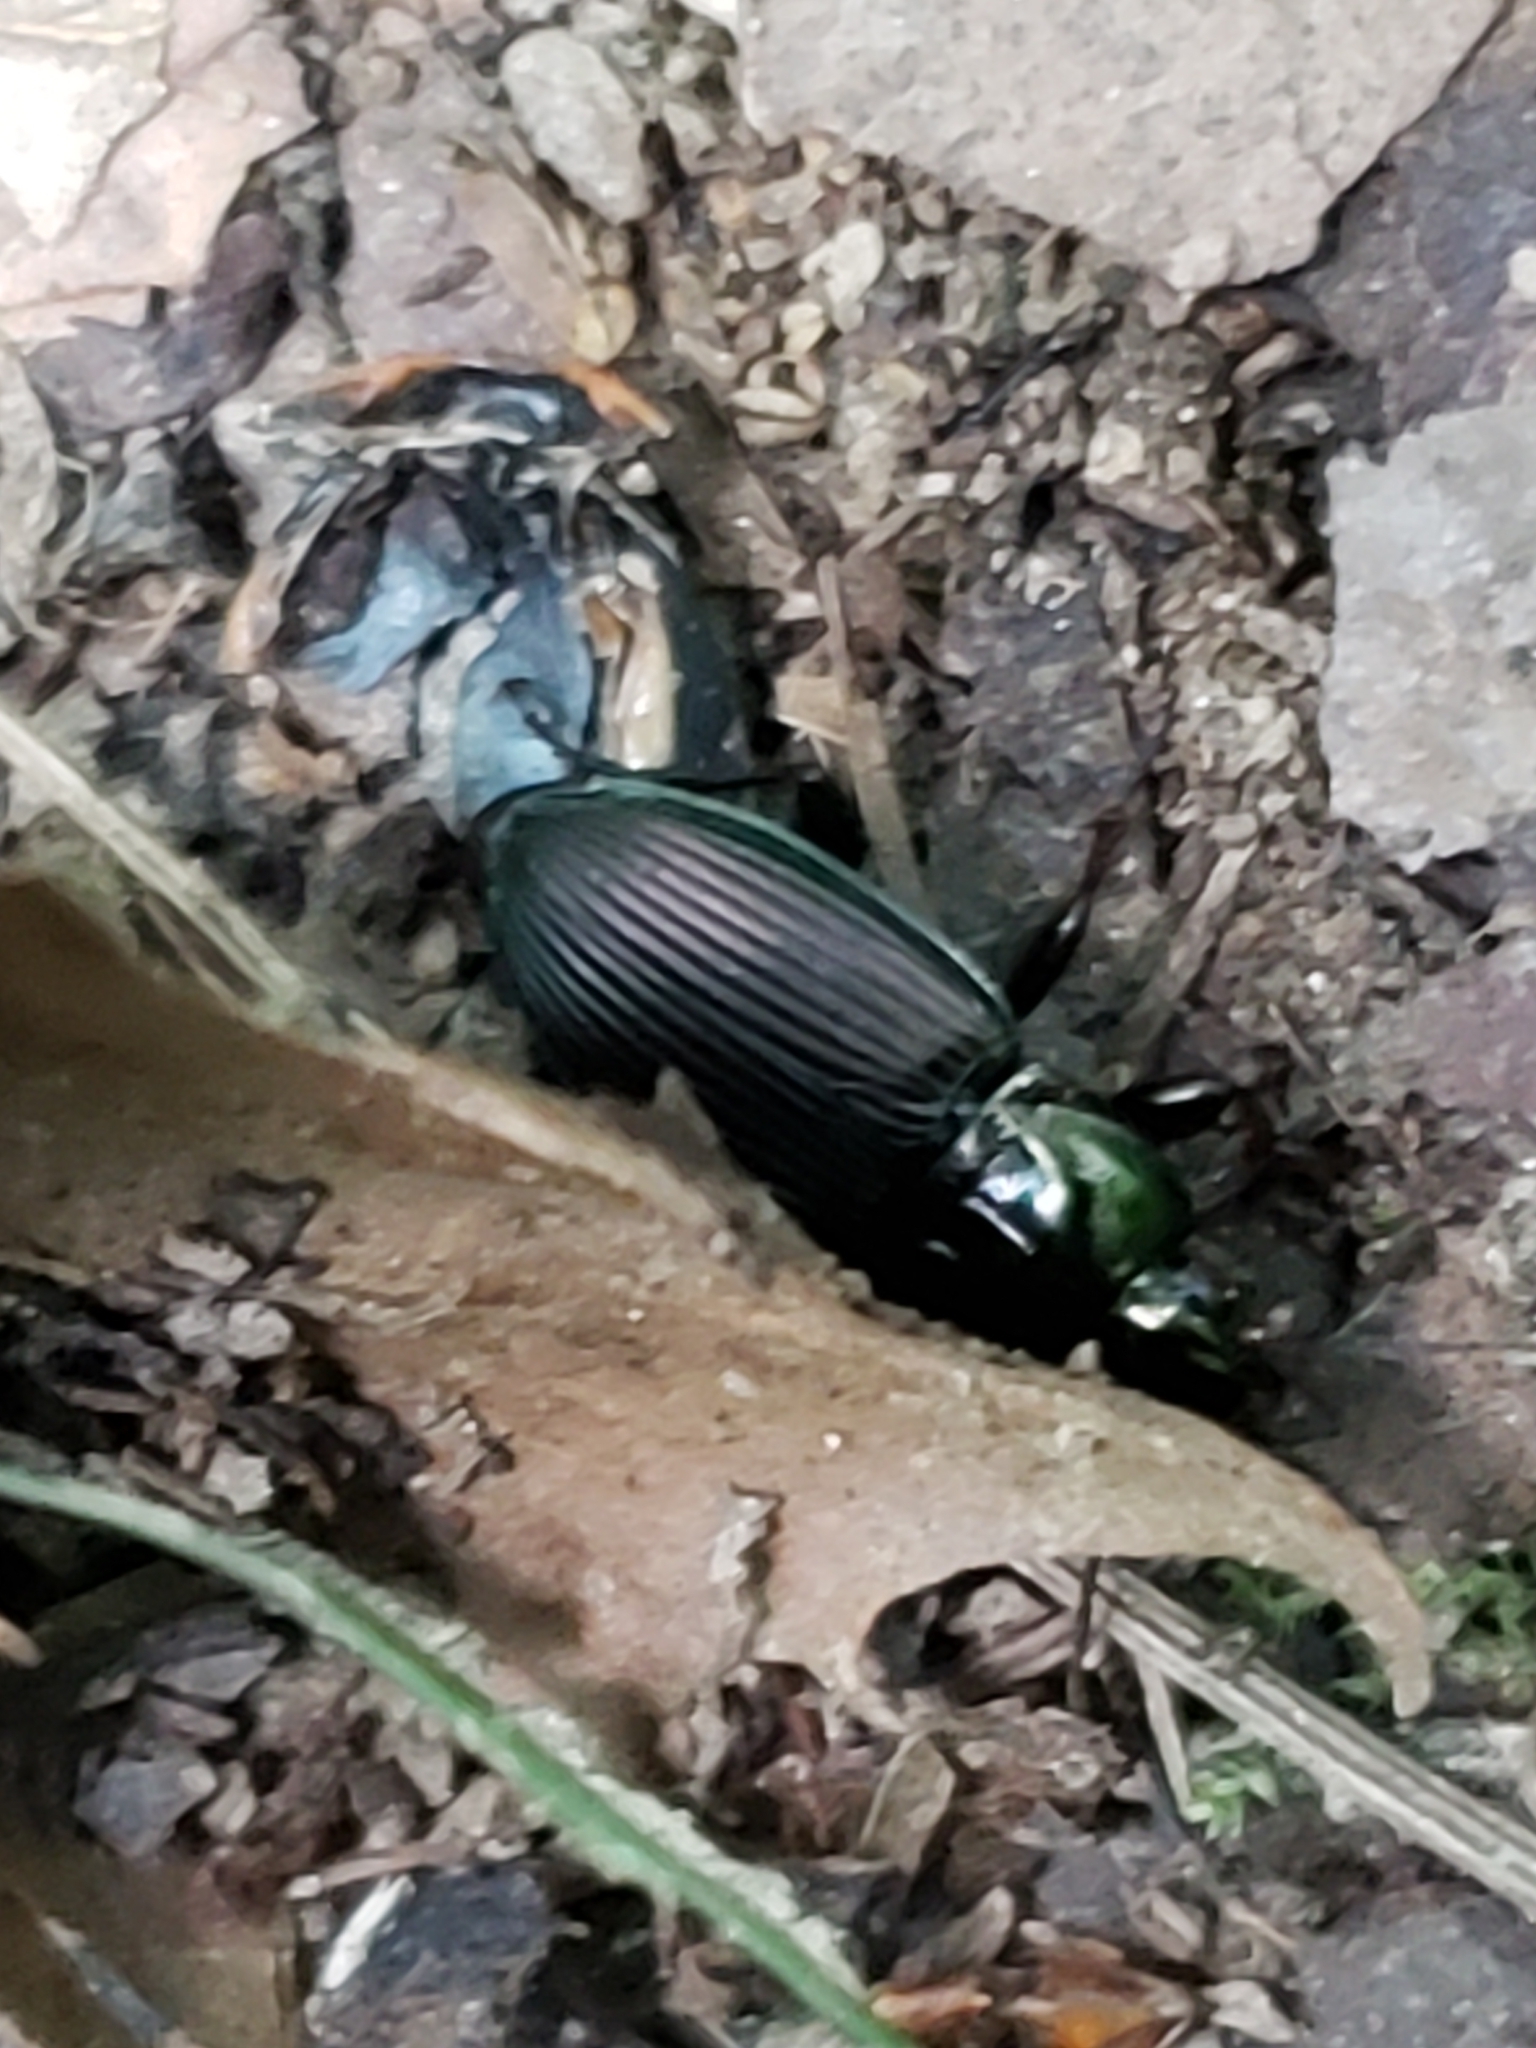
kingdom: Animalia
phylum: Arthropoda
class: Insecta
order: Coleoptera
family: Carabidae
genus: Poecilus
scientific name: Poecilus lucublandus
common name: Woodland ground beetle
